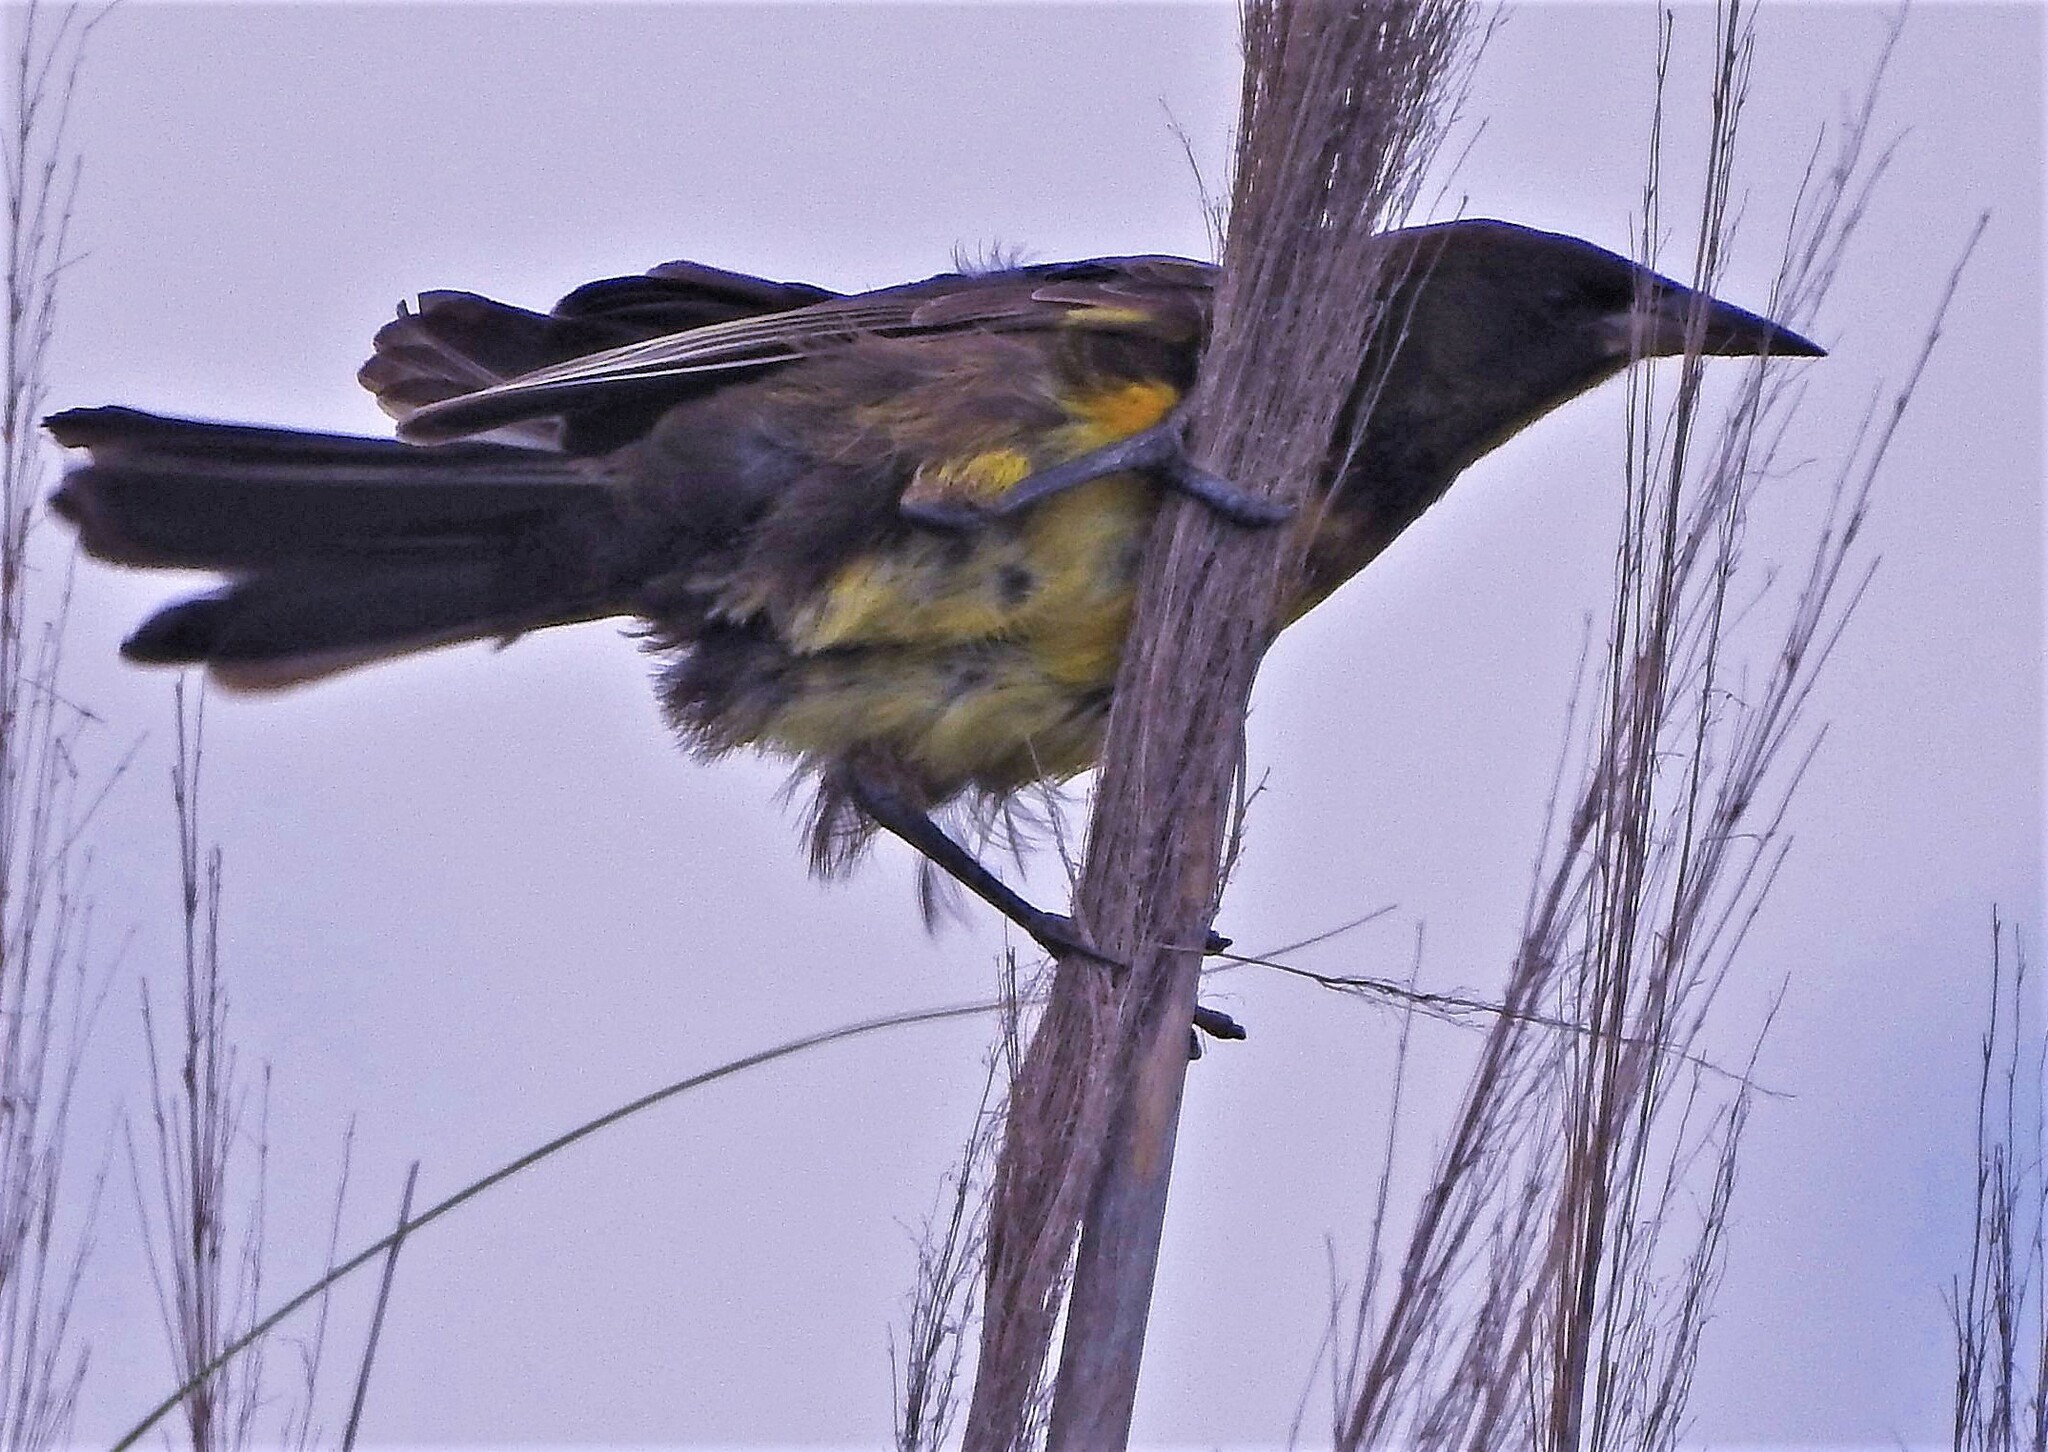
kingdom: Animalia
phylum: Chordata
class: Aves
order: Passeriformes
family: Icteridae
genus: Pseudoleistes
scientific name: Pseudoleistes virescens
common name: Brown-and-yellow marshbird
